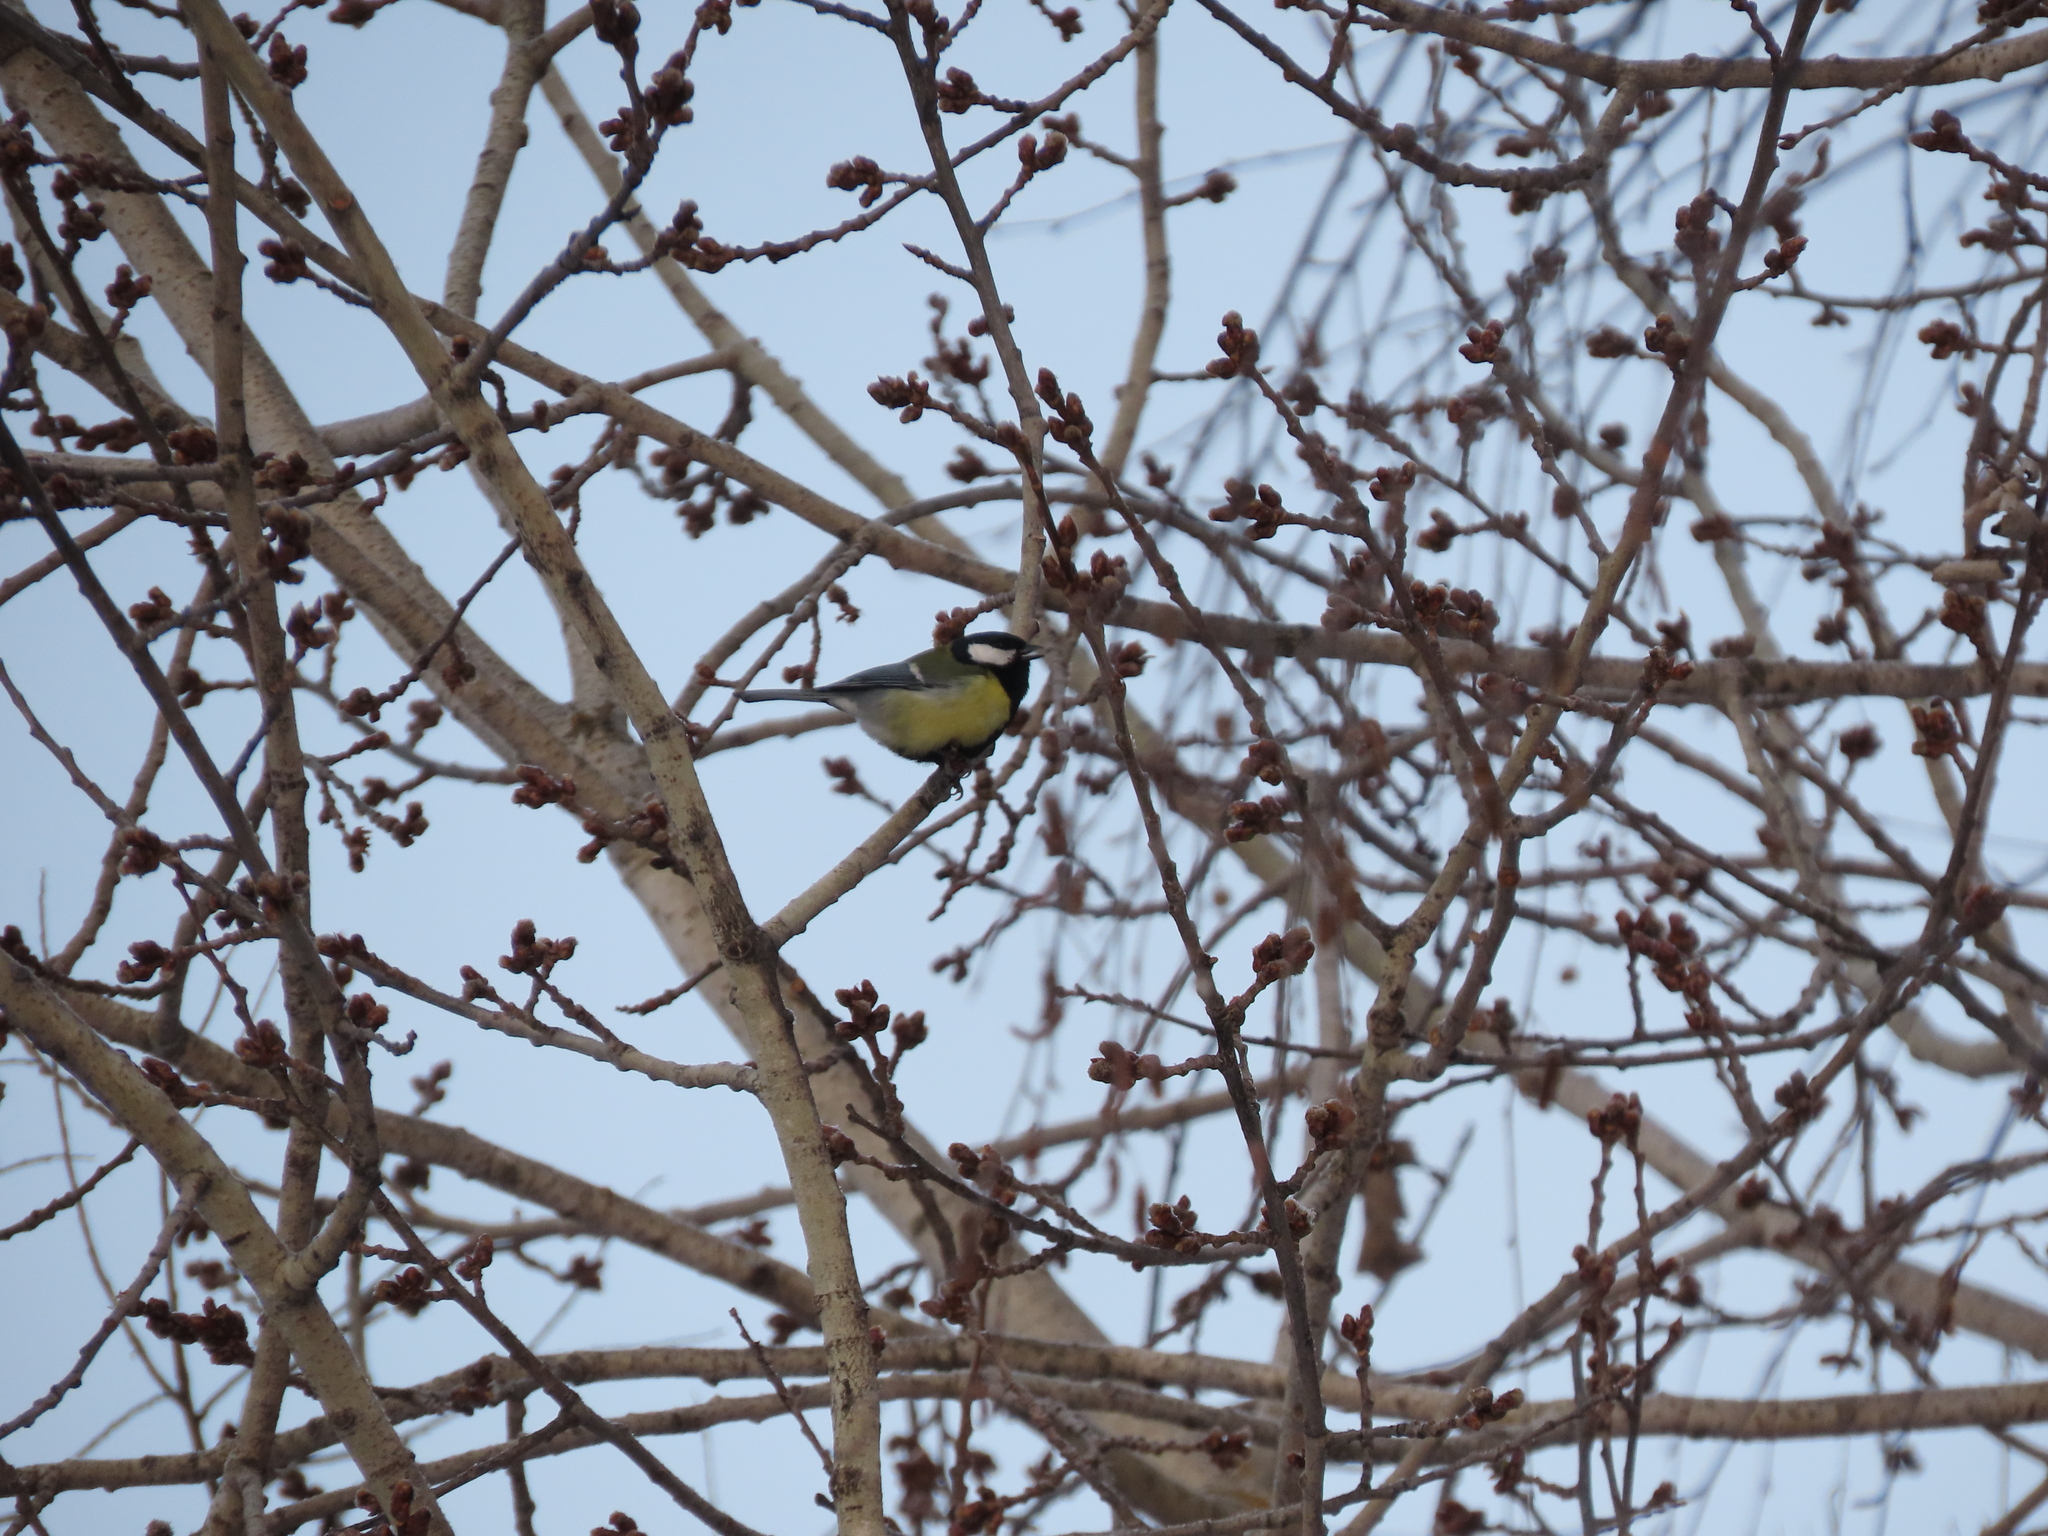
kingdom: Animalia
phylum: Chordata
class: Aves
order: Passeriformes
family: Paridae
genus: Parus
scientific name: Parus major
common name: Great tit
